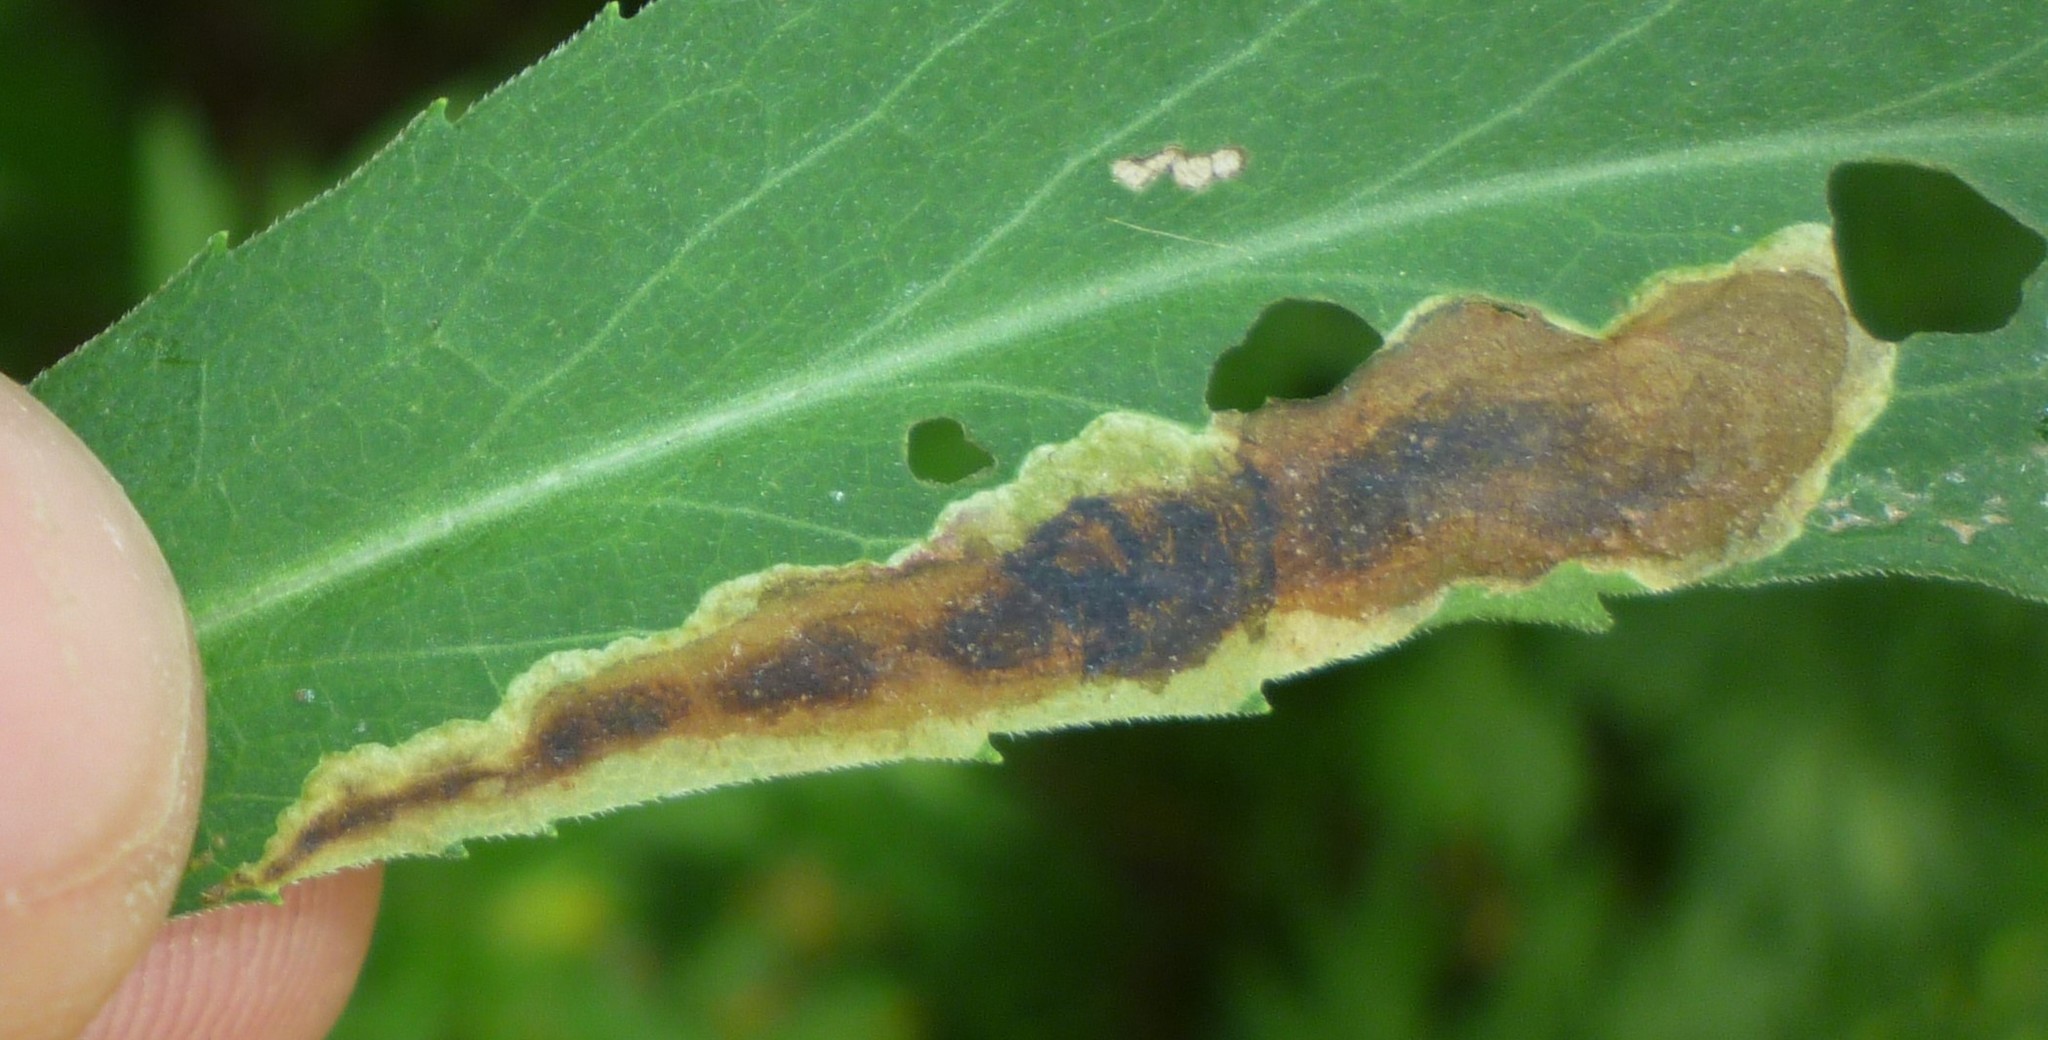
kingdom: Animalia
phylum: Arthropoda
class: Insecta
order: Diptera
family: Agromyzidae
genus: Nemorimyza
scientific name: Nemorimyza posticata
